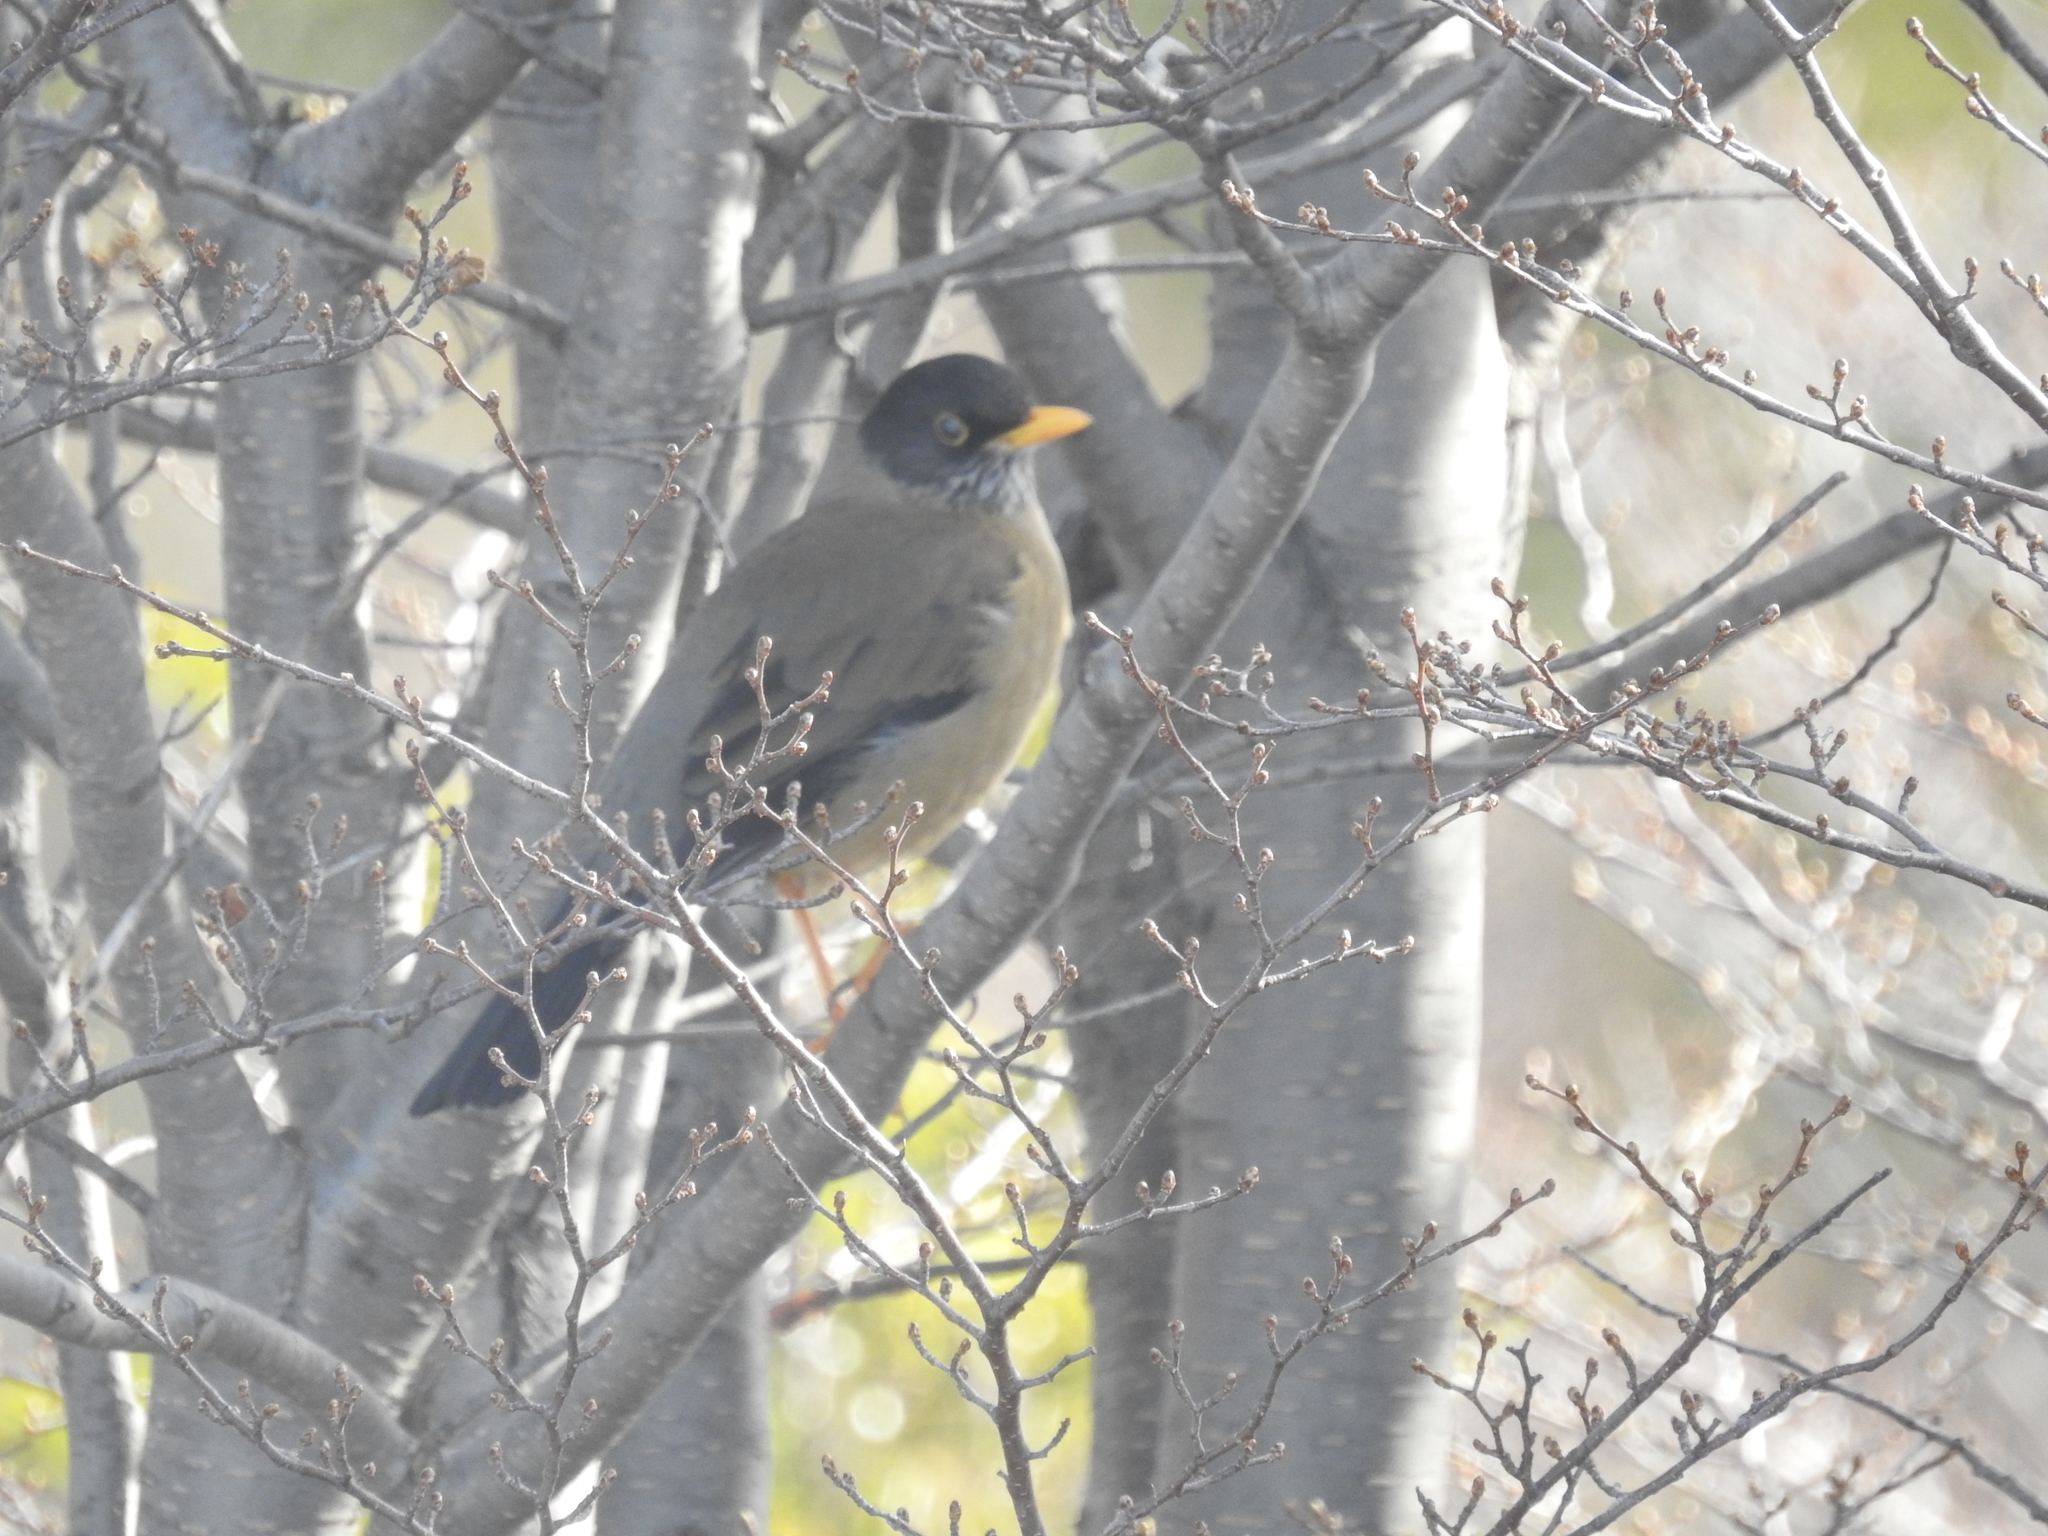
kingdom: Animalia
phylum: Chordata
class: Aves
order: Passeriformes
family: Turdidae
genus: Turdus
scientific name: Turdus falcklandii
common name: Austral thrush
